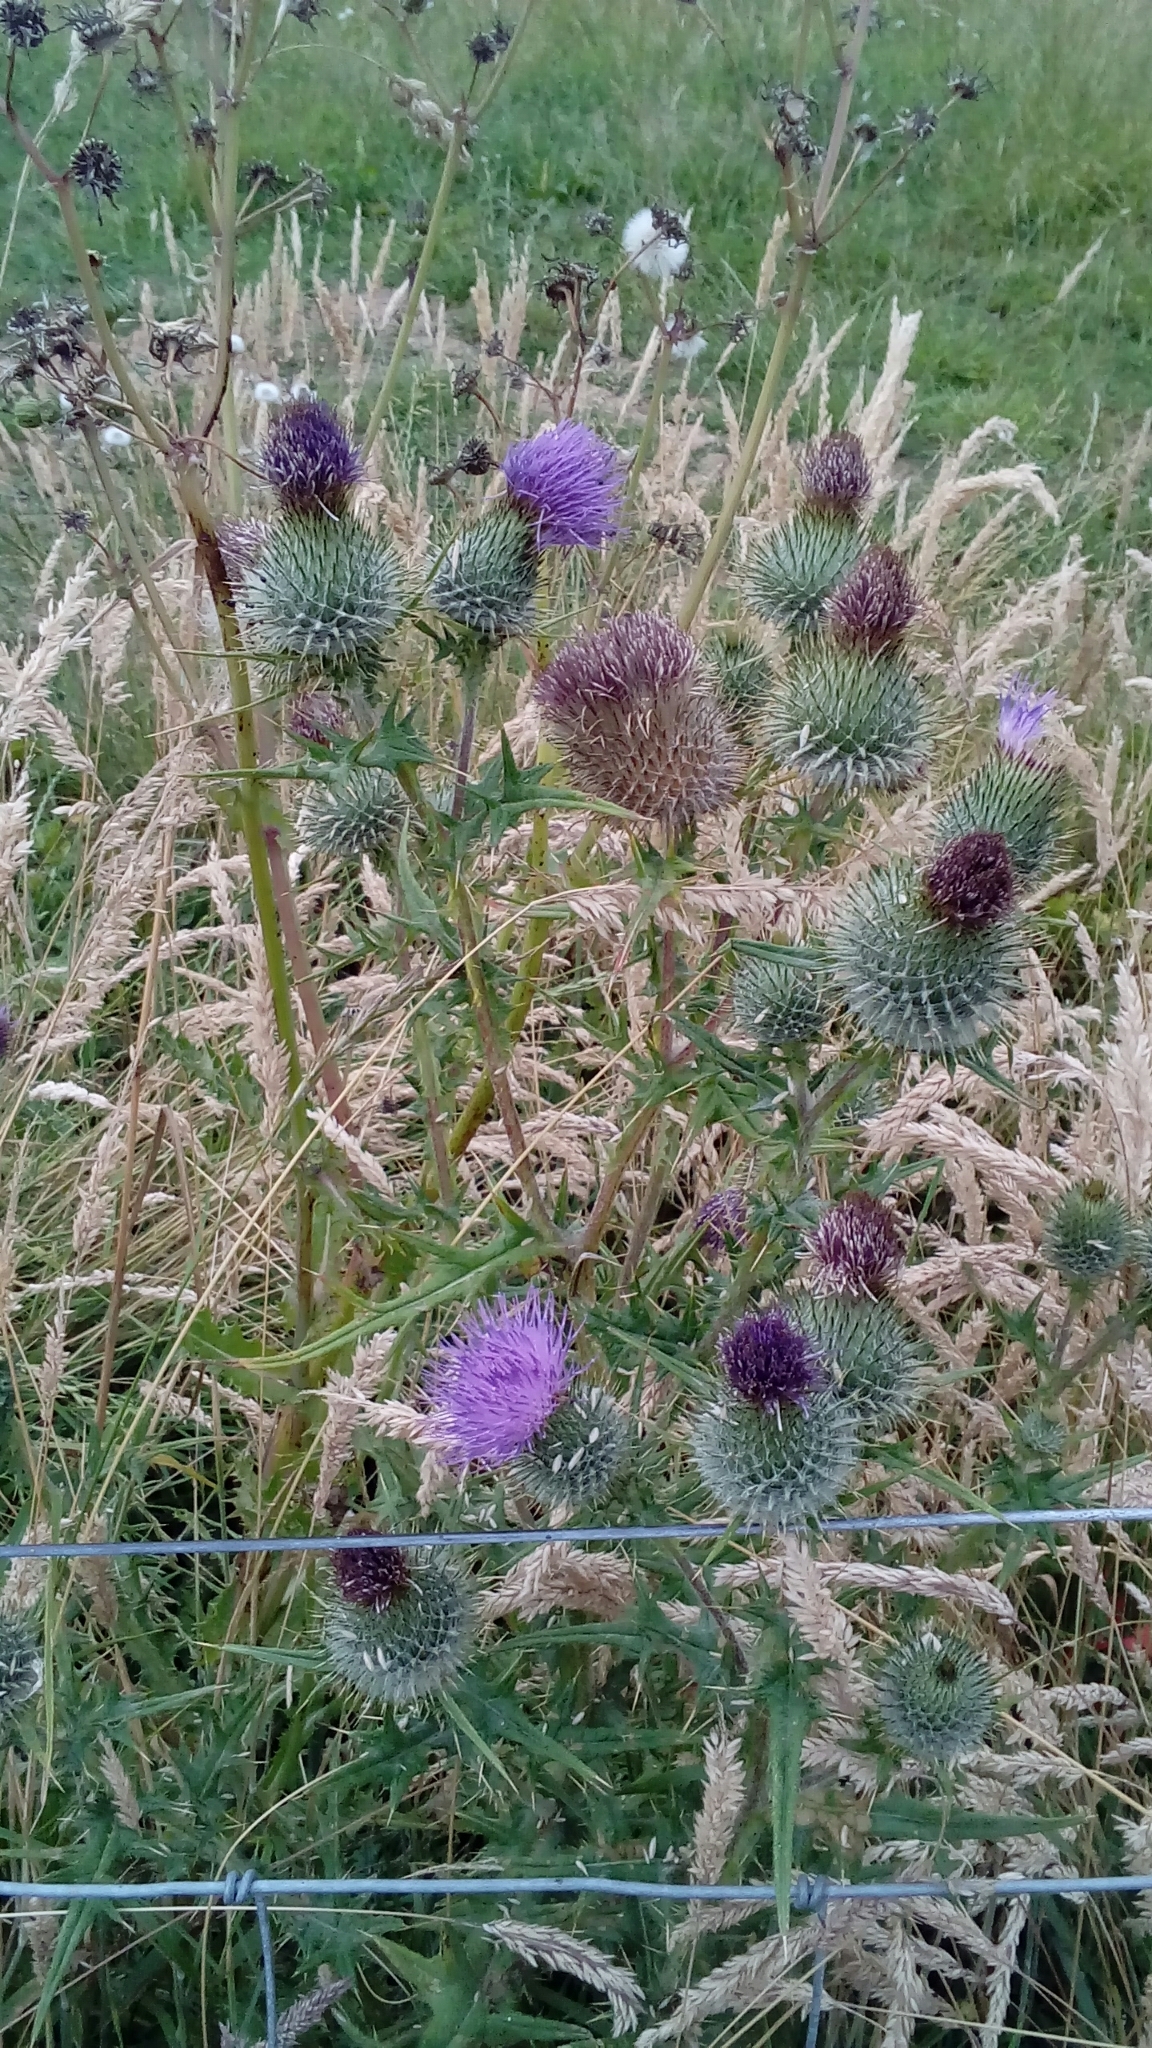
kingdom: Plantae
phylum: Tracheophyta
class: Magnoliopsida
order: Asterales
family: Asteraceae
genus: Cirsium
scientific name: Cirsium vulgare
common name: Bull thistle
